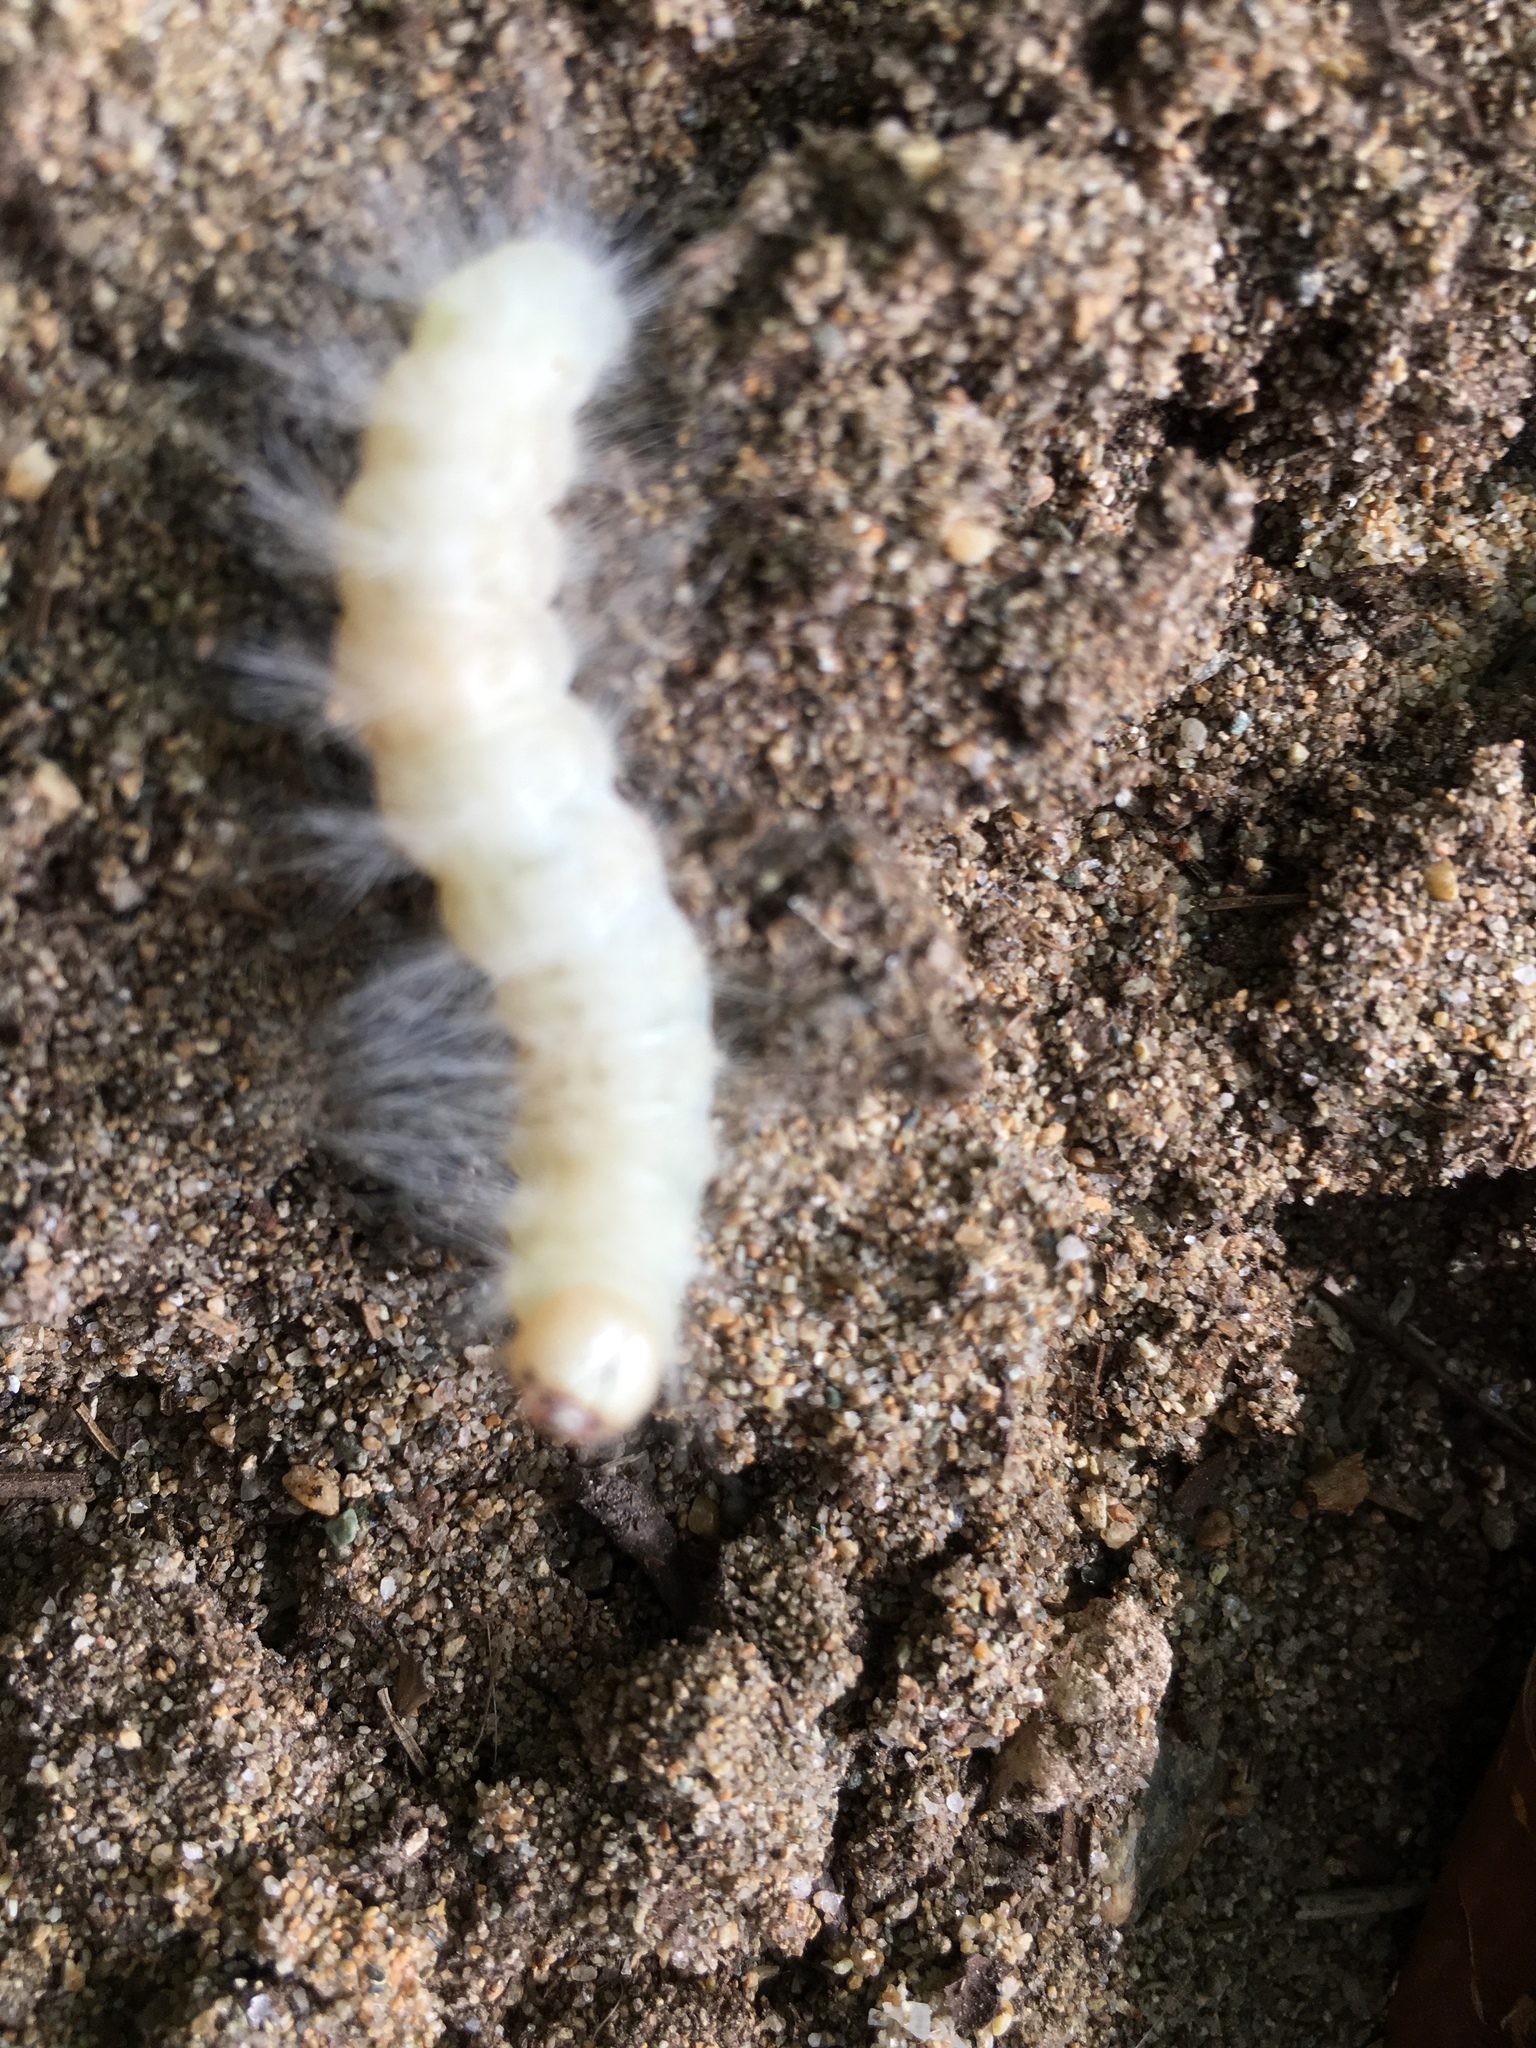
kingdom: Animalia
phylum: Arthropoda
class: Insecta
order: Lepidoptera
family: Noctuidae
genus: Charadra
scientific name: Charadra deridens
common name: Marbled tuffet
